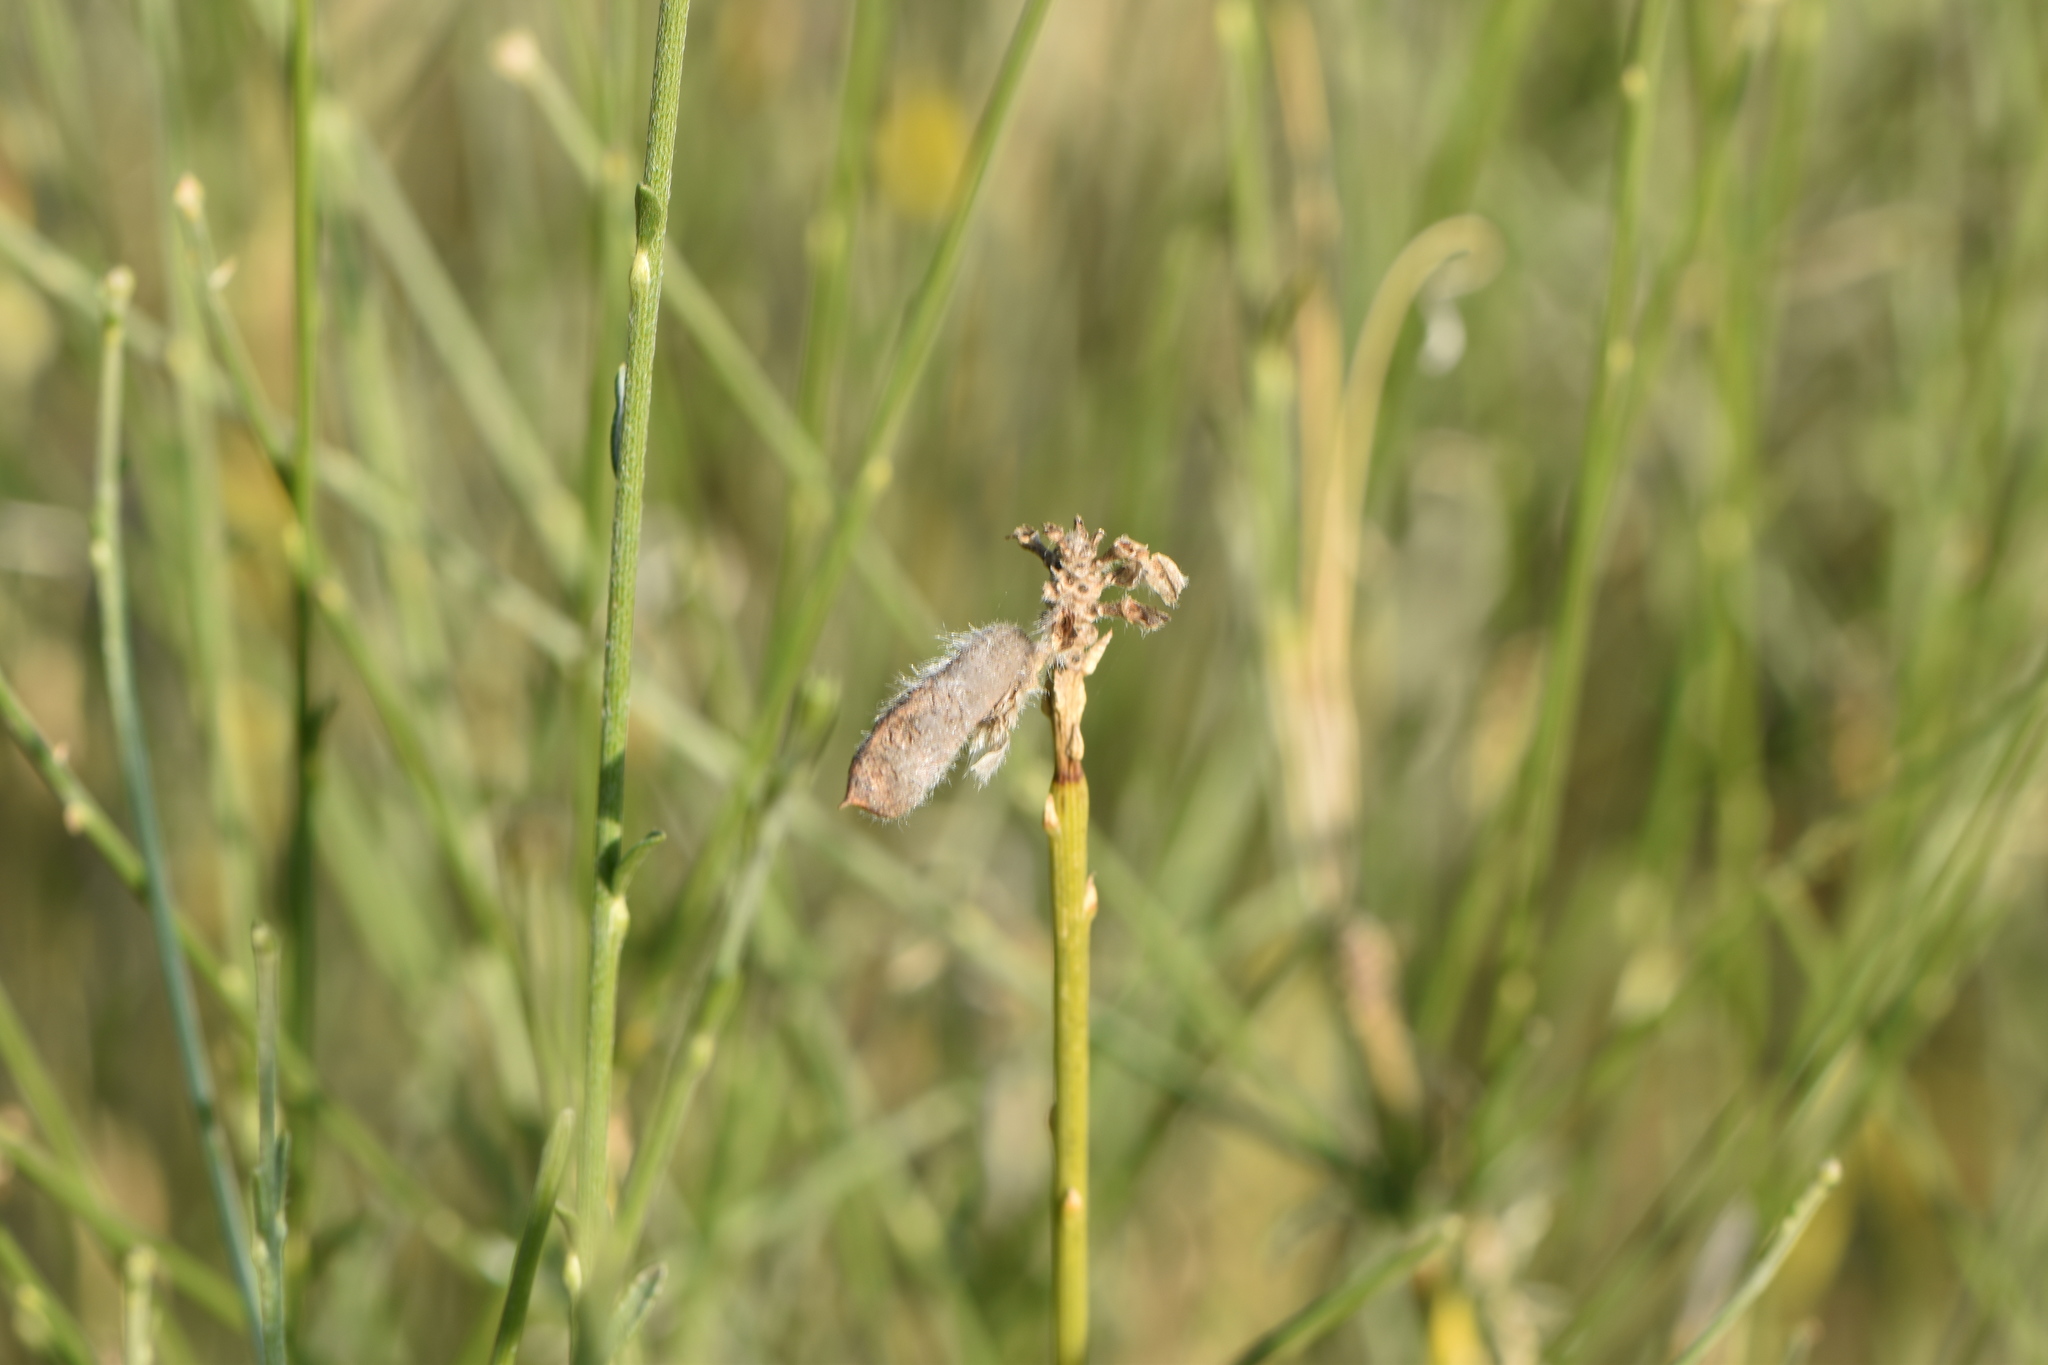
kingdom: Plantae
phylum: Tracheophyta
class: Magnoliopsida
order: Fabales
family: Fabaceae
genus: Genista
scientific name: Genista umbellata
